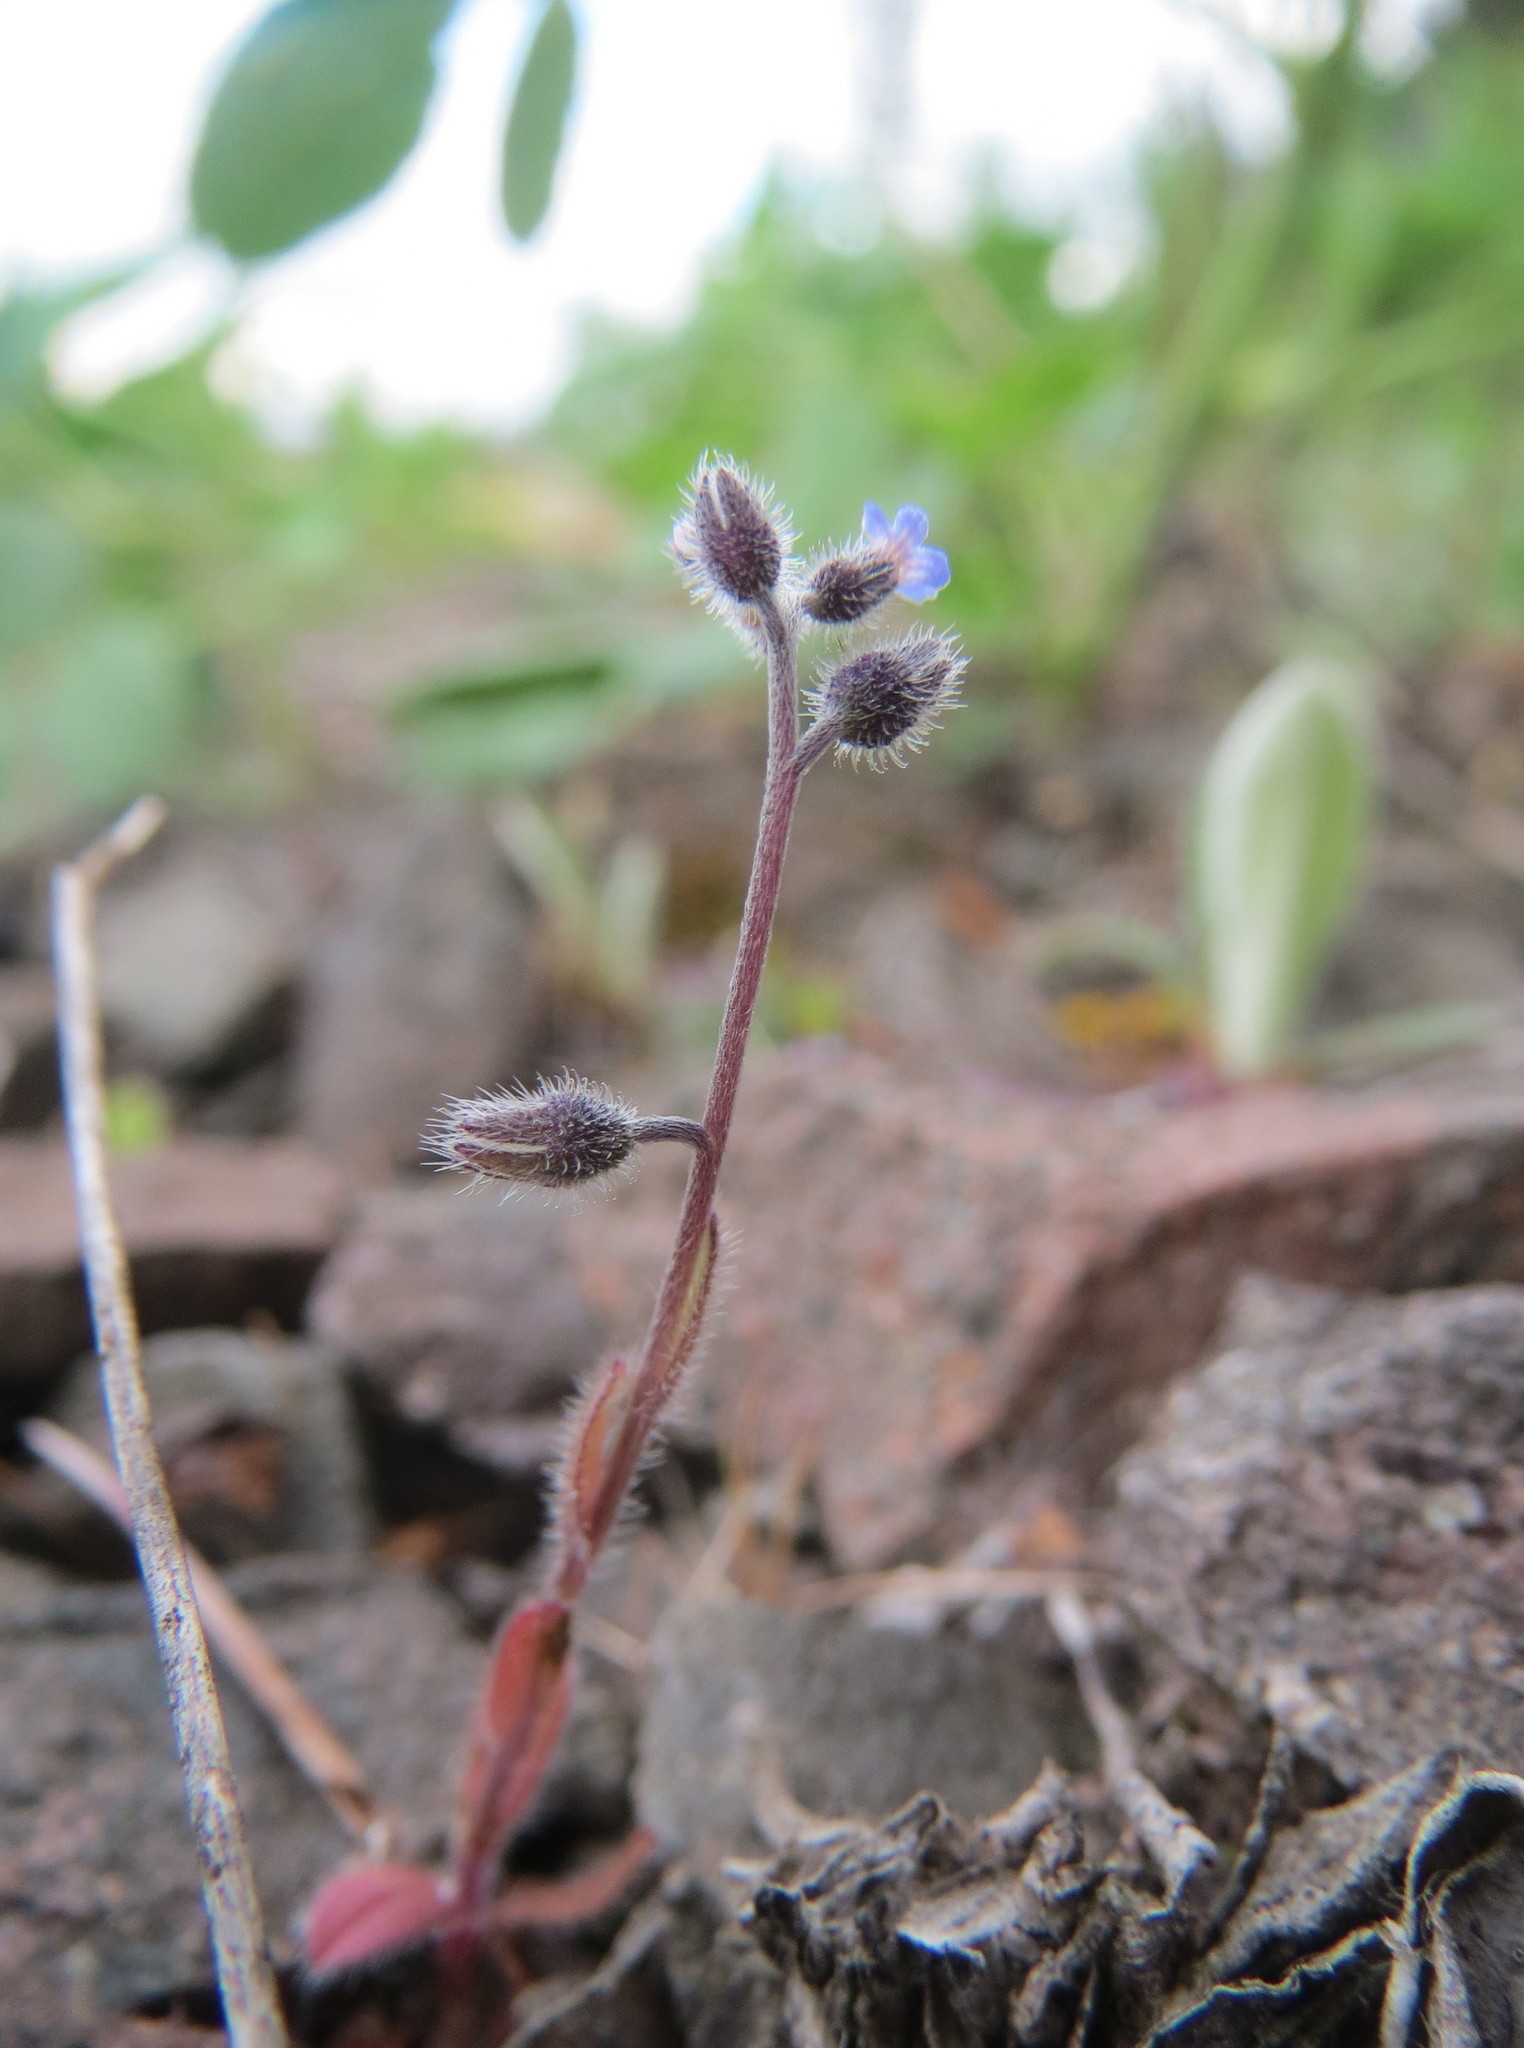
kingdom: Plantae
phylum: Tracheophyta
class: Magnoliopsida
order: Boraginales
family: Boraginaceae
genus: Myosotis
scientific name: Myosotis ramosissima
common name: Early forget-me-not
